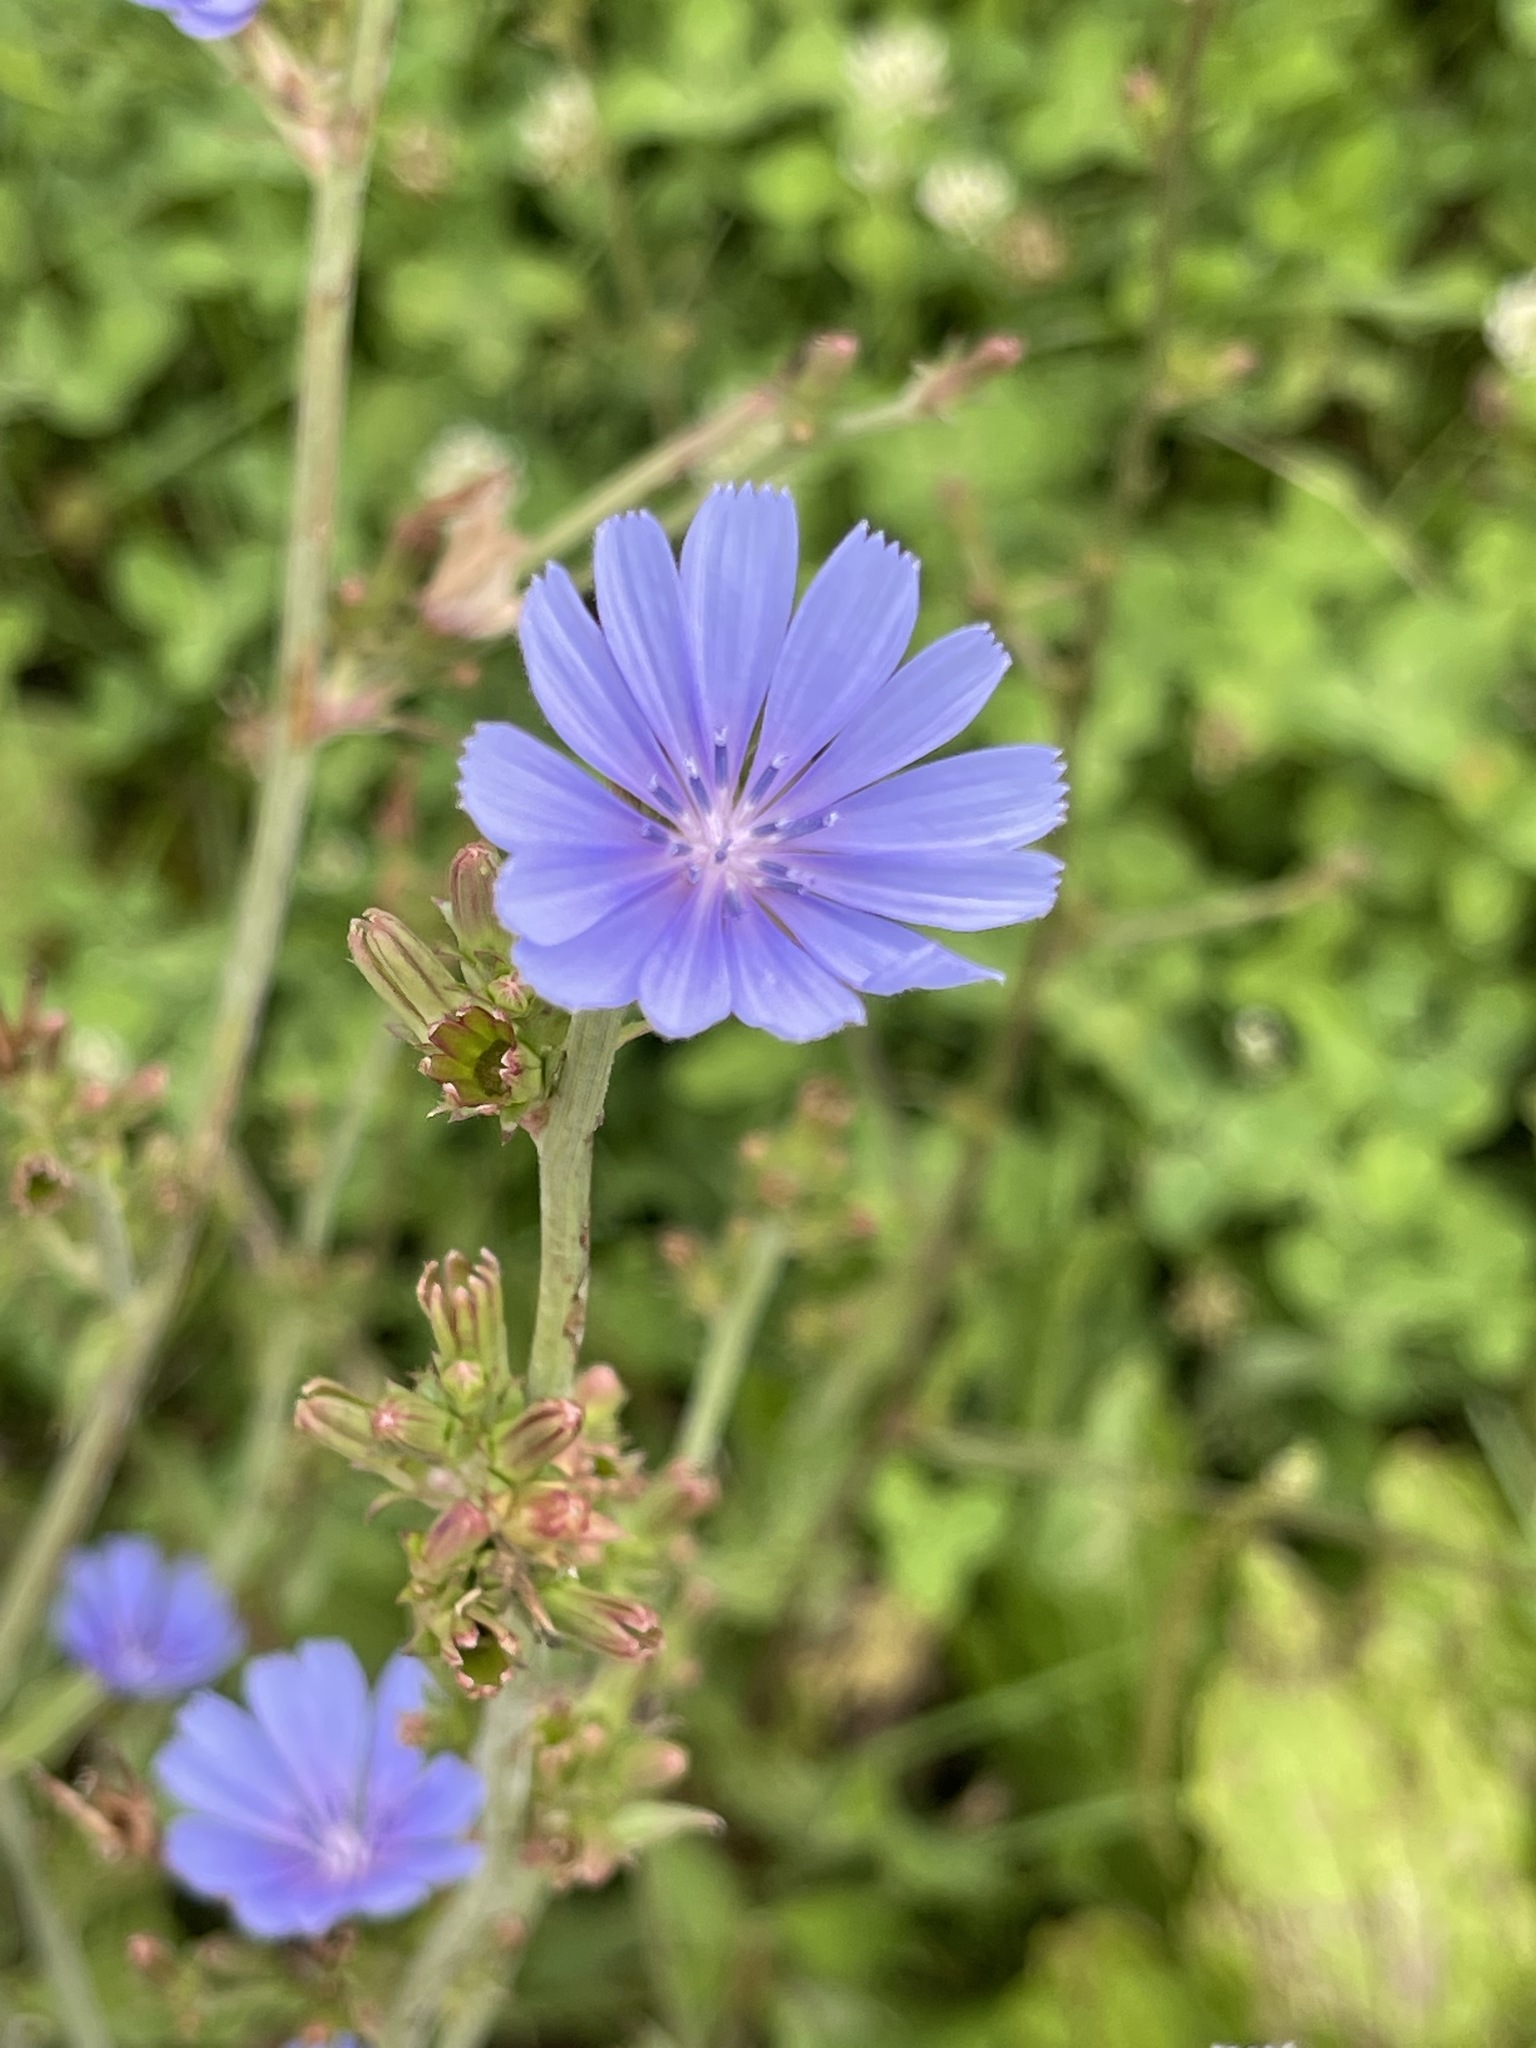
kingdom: Plantae
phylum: Tracheophyta
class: Magnoliopsida
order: Asterales
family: Asteraceae
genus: Cichorium
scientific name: Cichorium intybus
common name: Chicory
